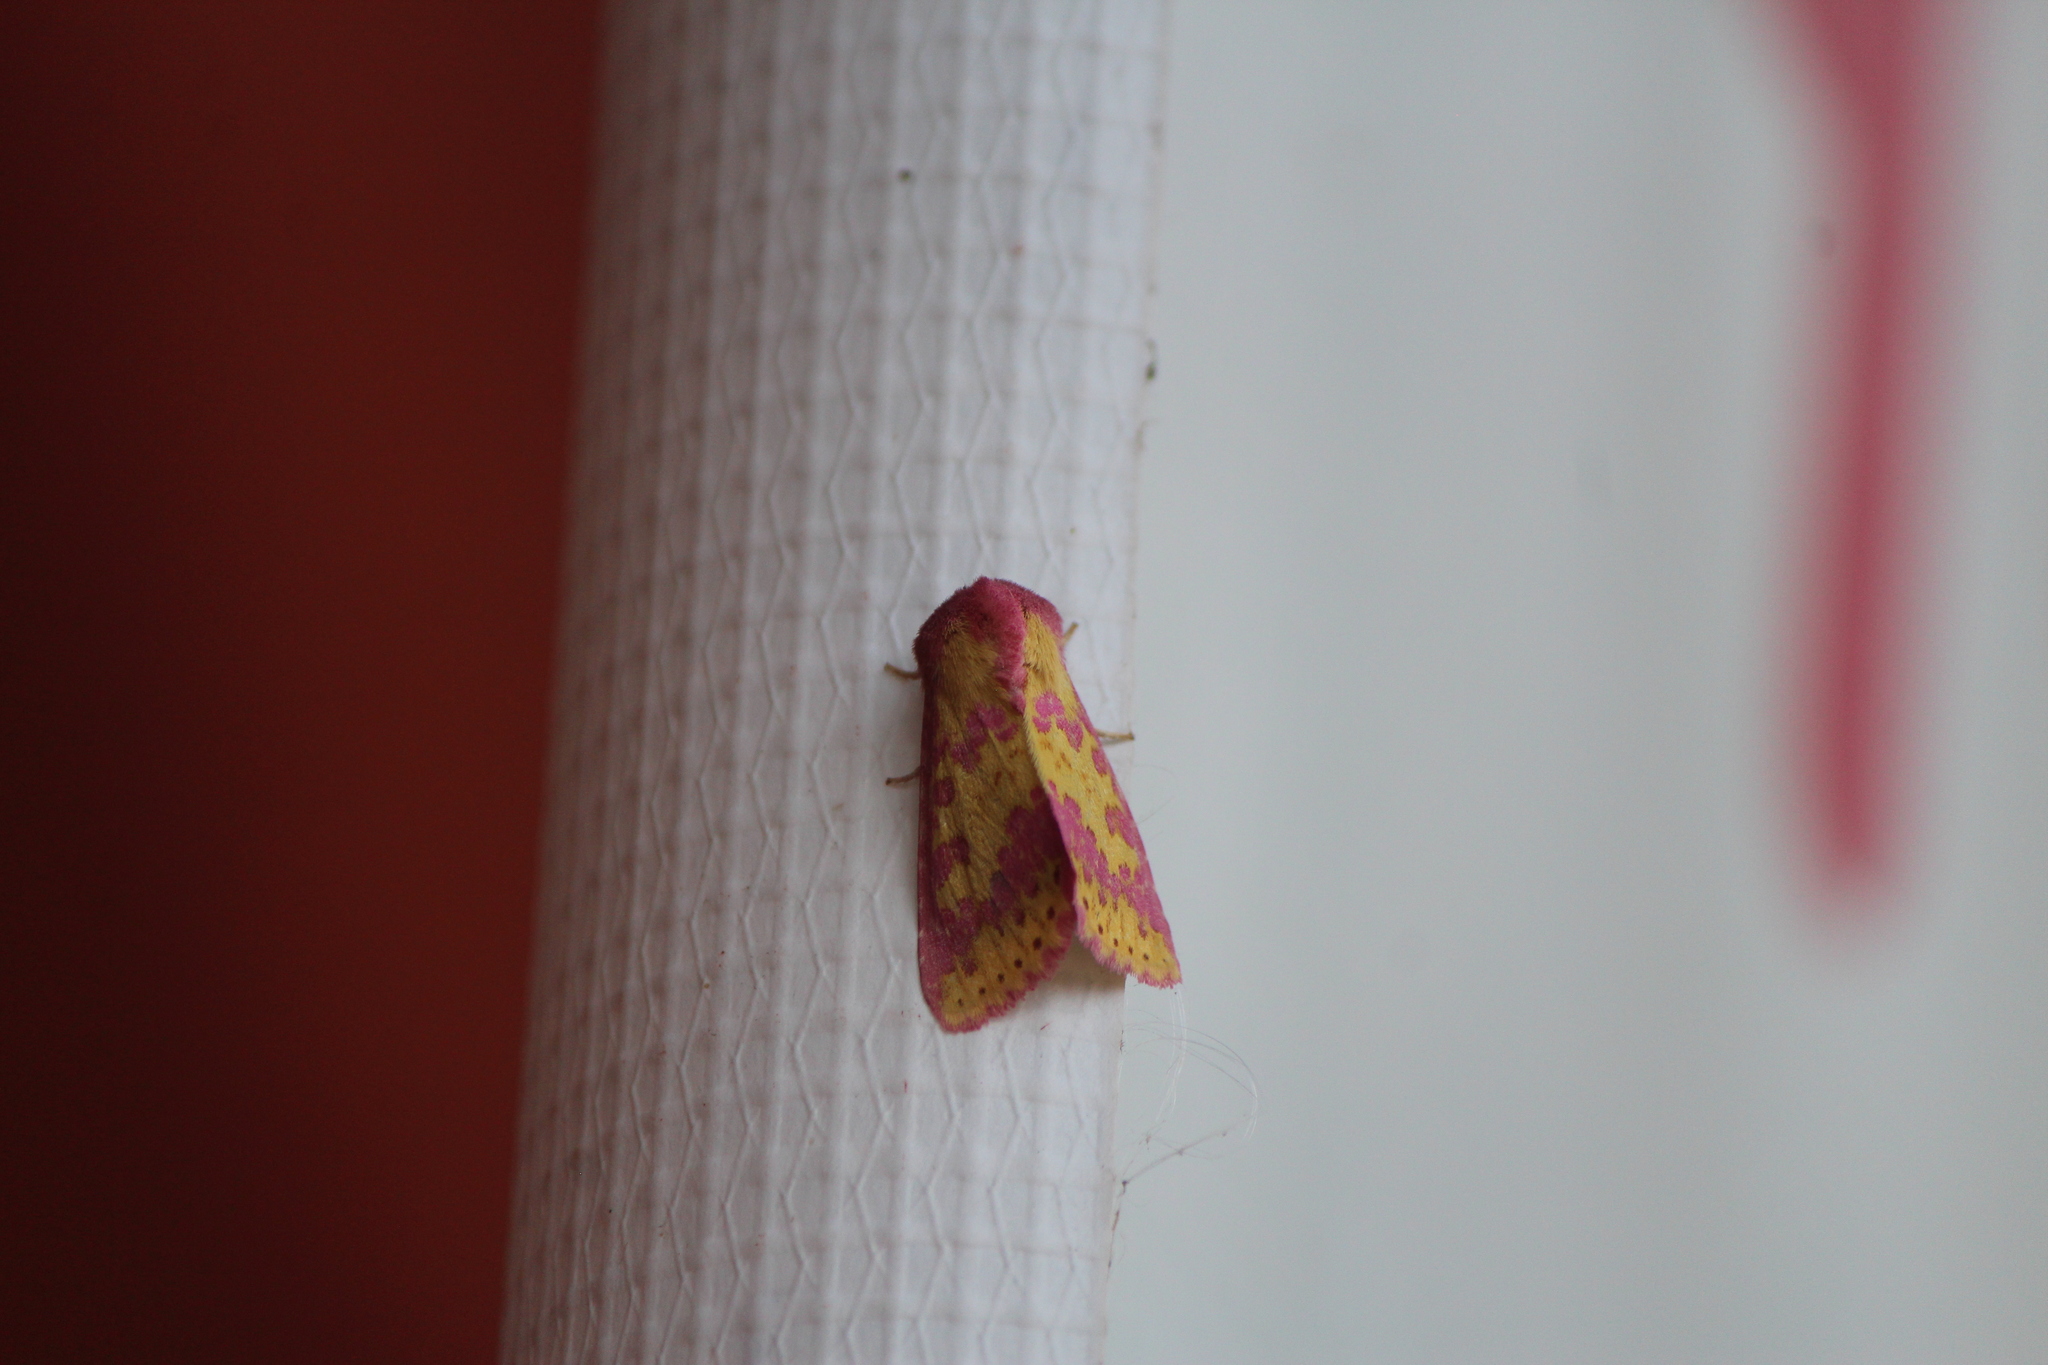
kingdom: Animalia
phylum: Arthropoda
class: Insecta
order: Lepidoptera
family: Noctuidae
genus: Erythroecia
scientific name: Erythroecia euposis
